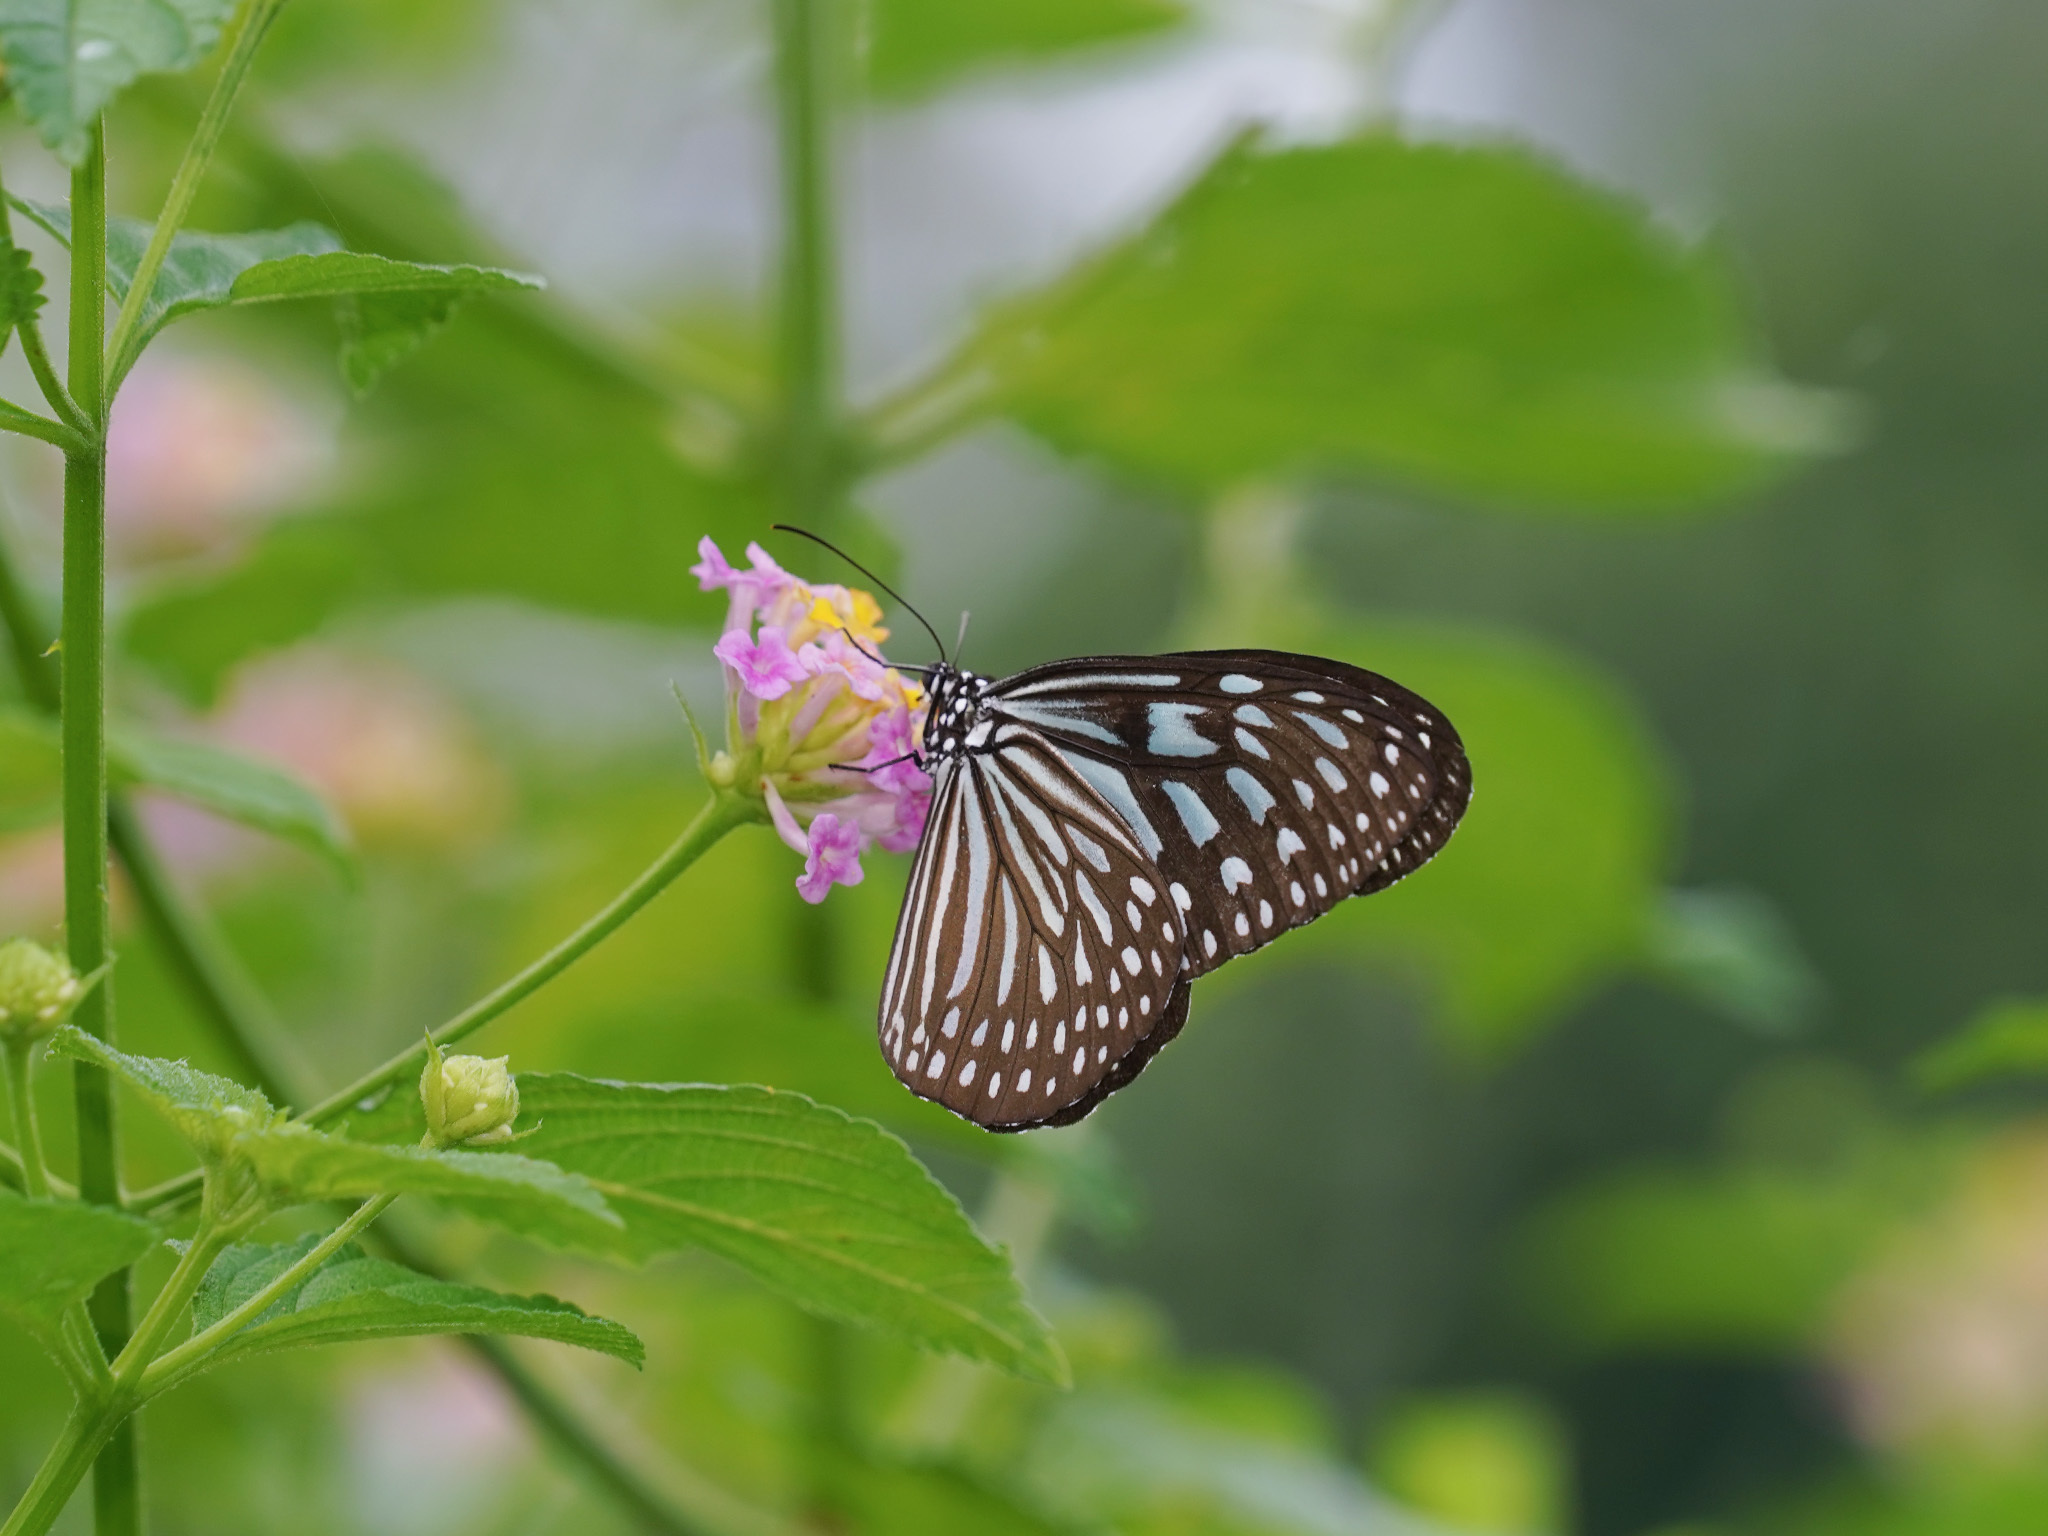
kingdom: Animalia
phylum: Arthropoda
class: Insecta
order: Lepidoptera
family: Nymphalidae
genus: Ideopsis
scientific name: Ideopsis vulgaris
